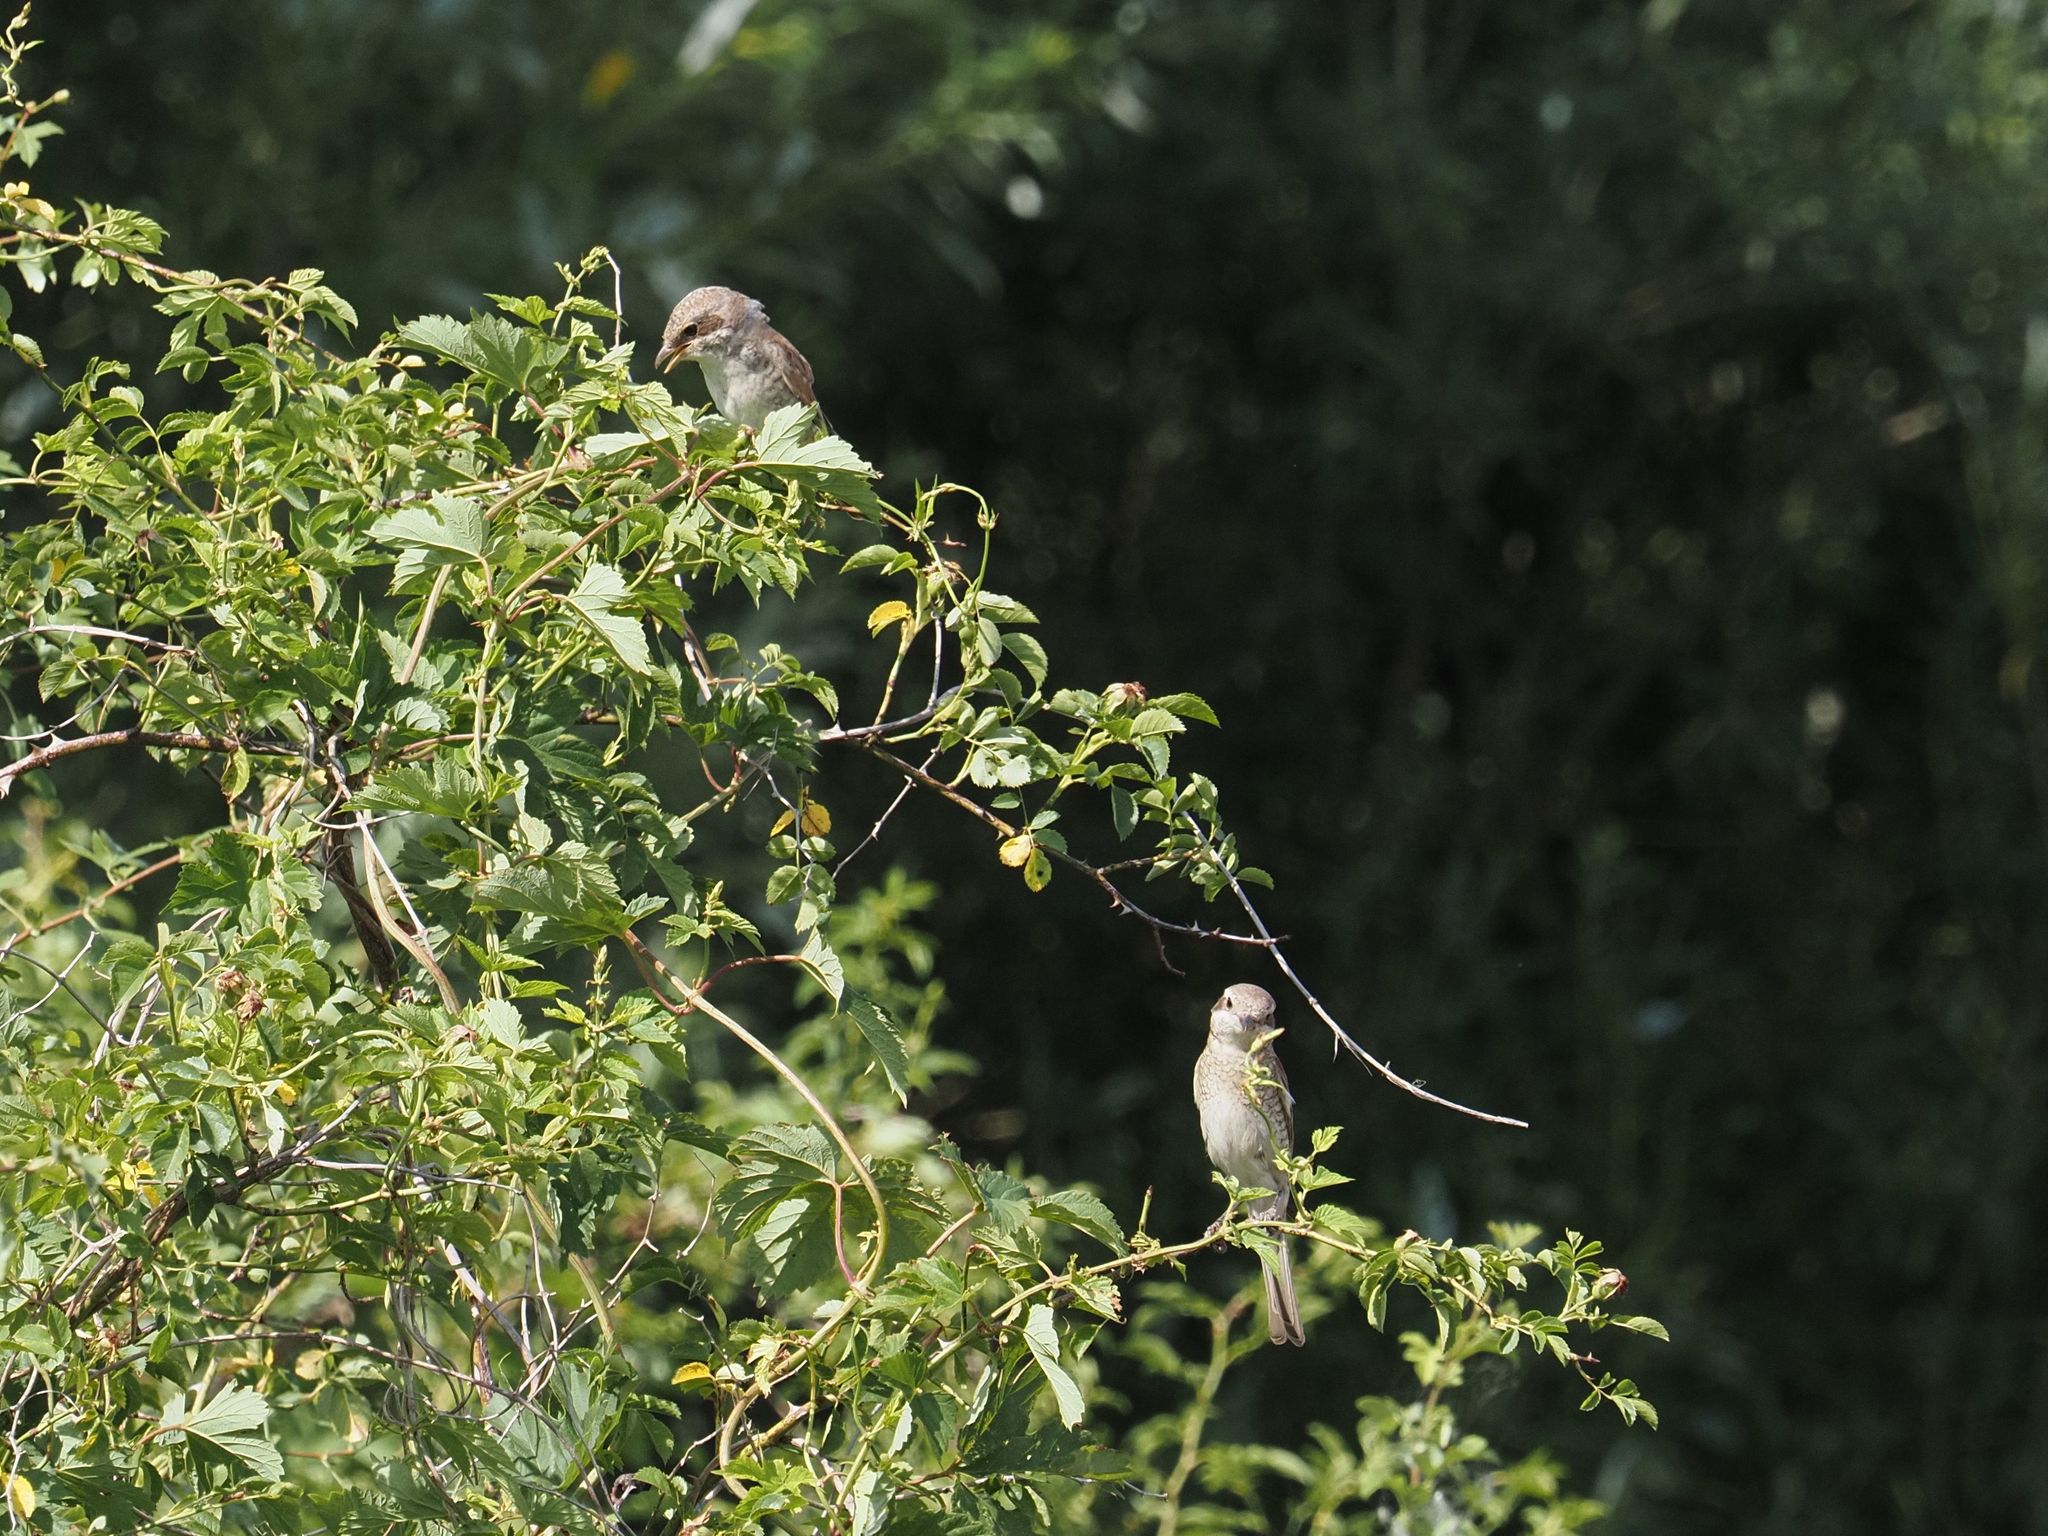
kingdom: Animalia
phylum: Chordata
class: Aves
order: Passeriformes
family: Laniidae
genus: Lanius
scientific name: Lanius collurio
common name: Red-backed shrike
